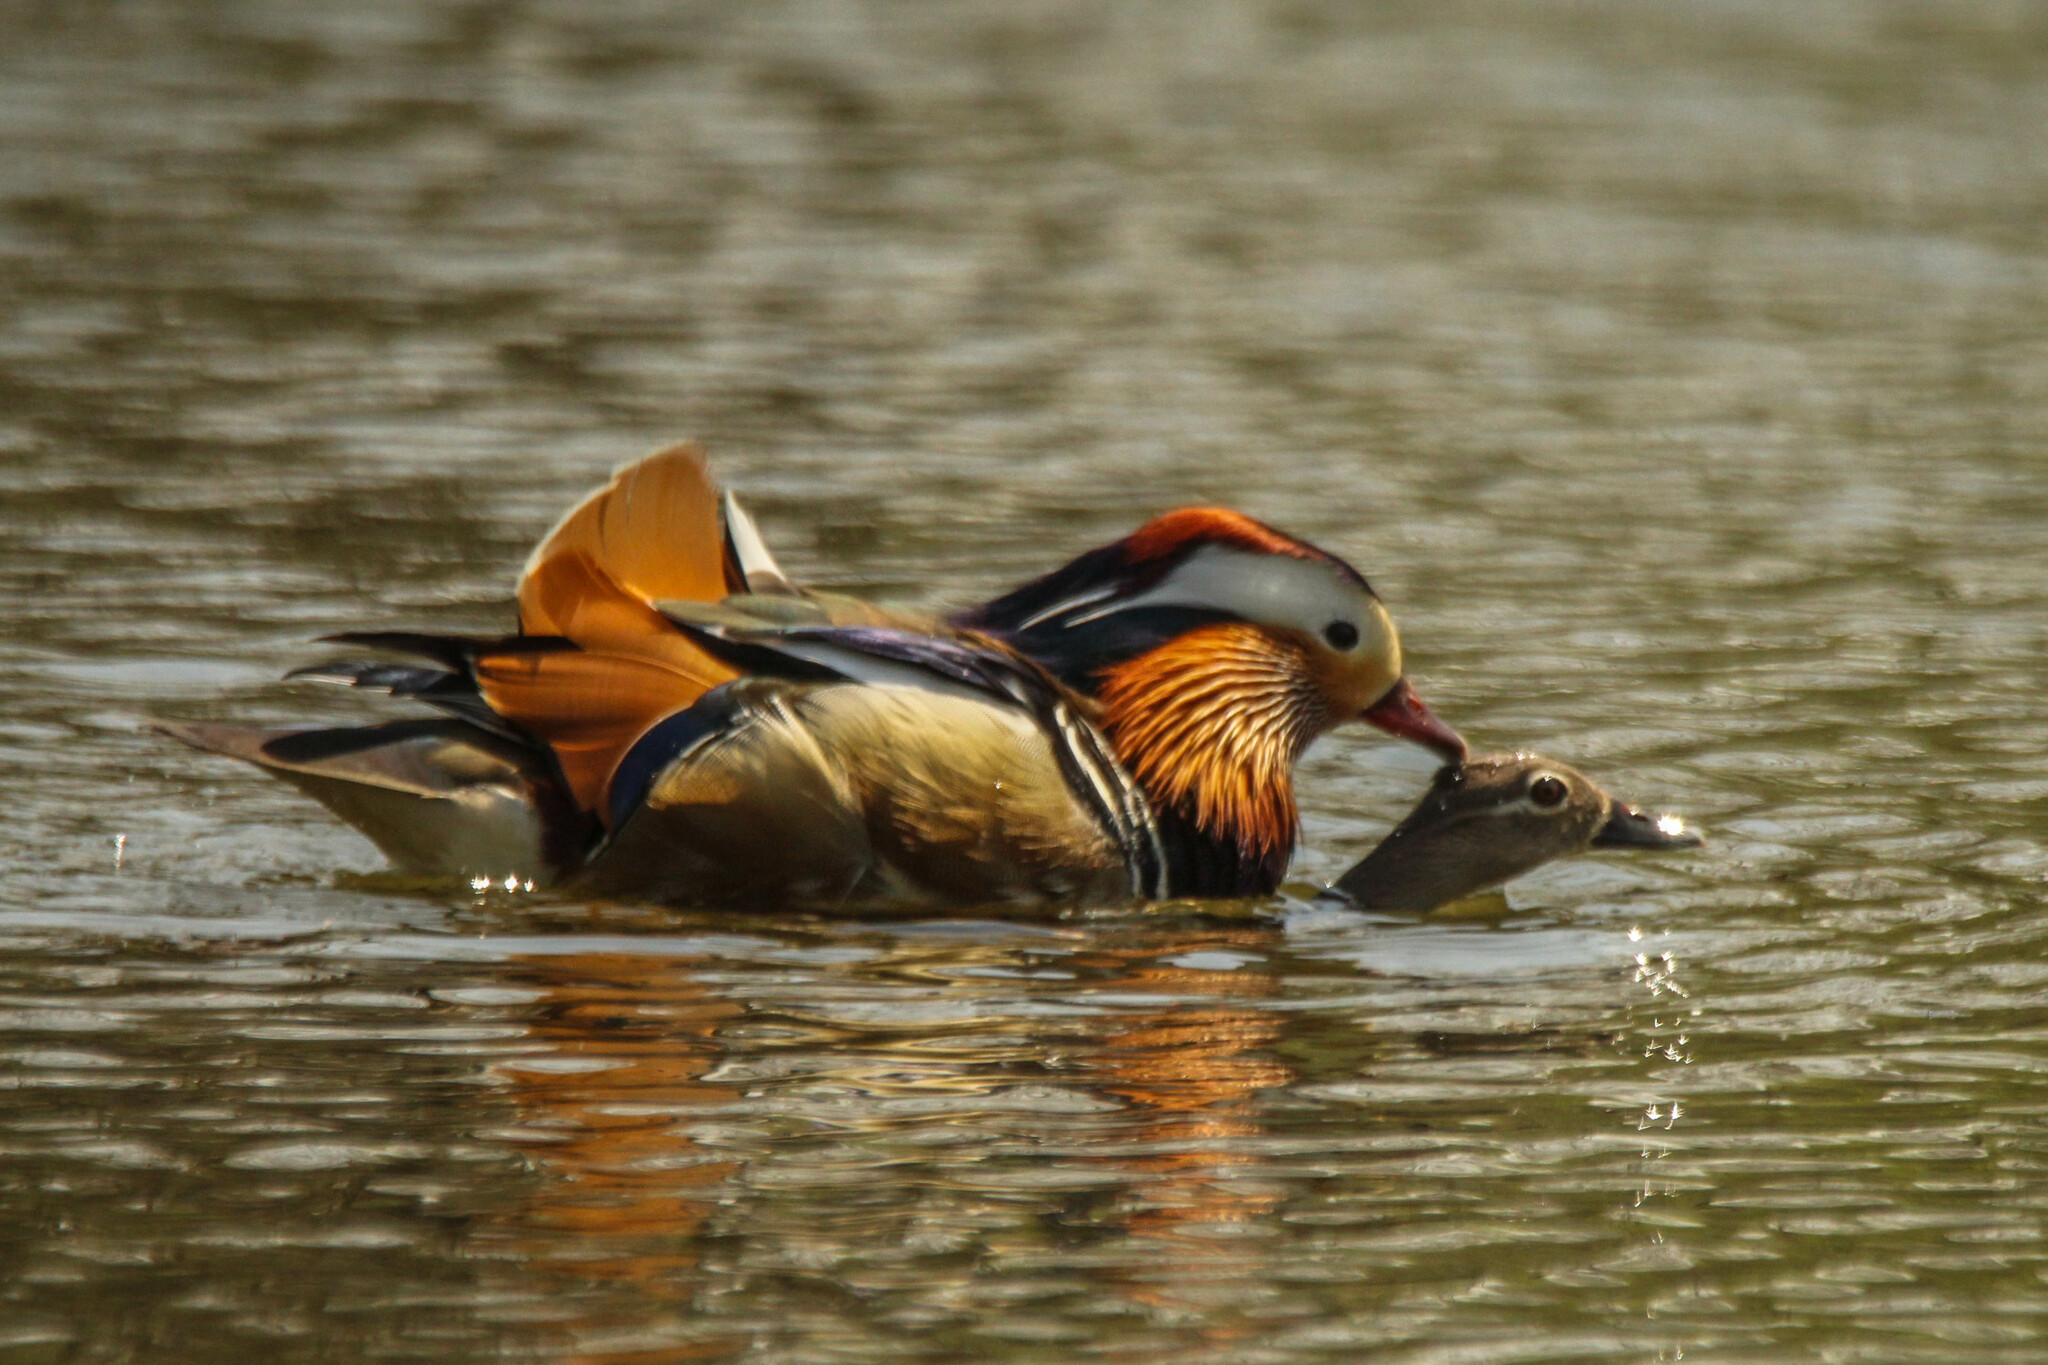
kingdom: Animalia
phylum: Chordata
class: Aves
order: Anseriformes
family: Anatidae
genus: Aix
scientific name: Aix galericulata
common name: Mandarin duck
